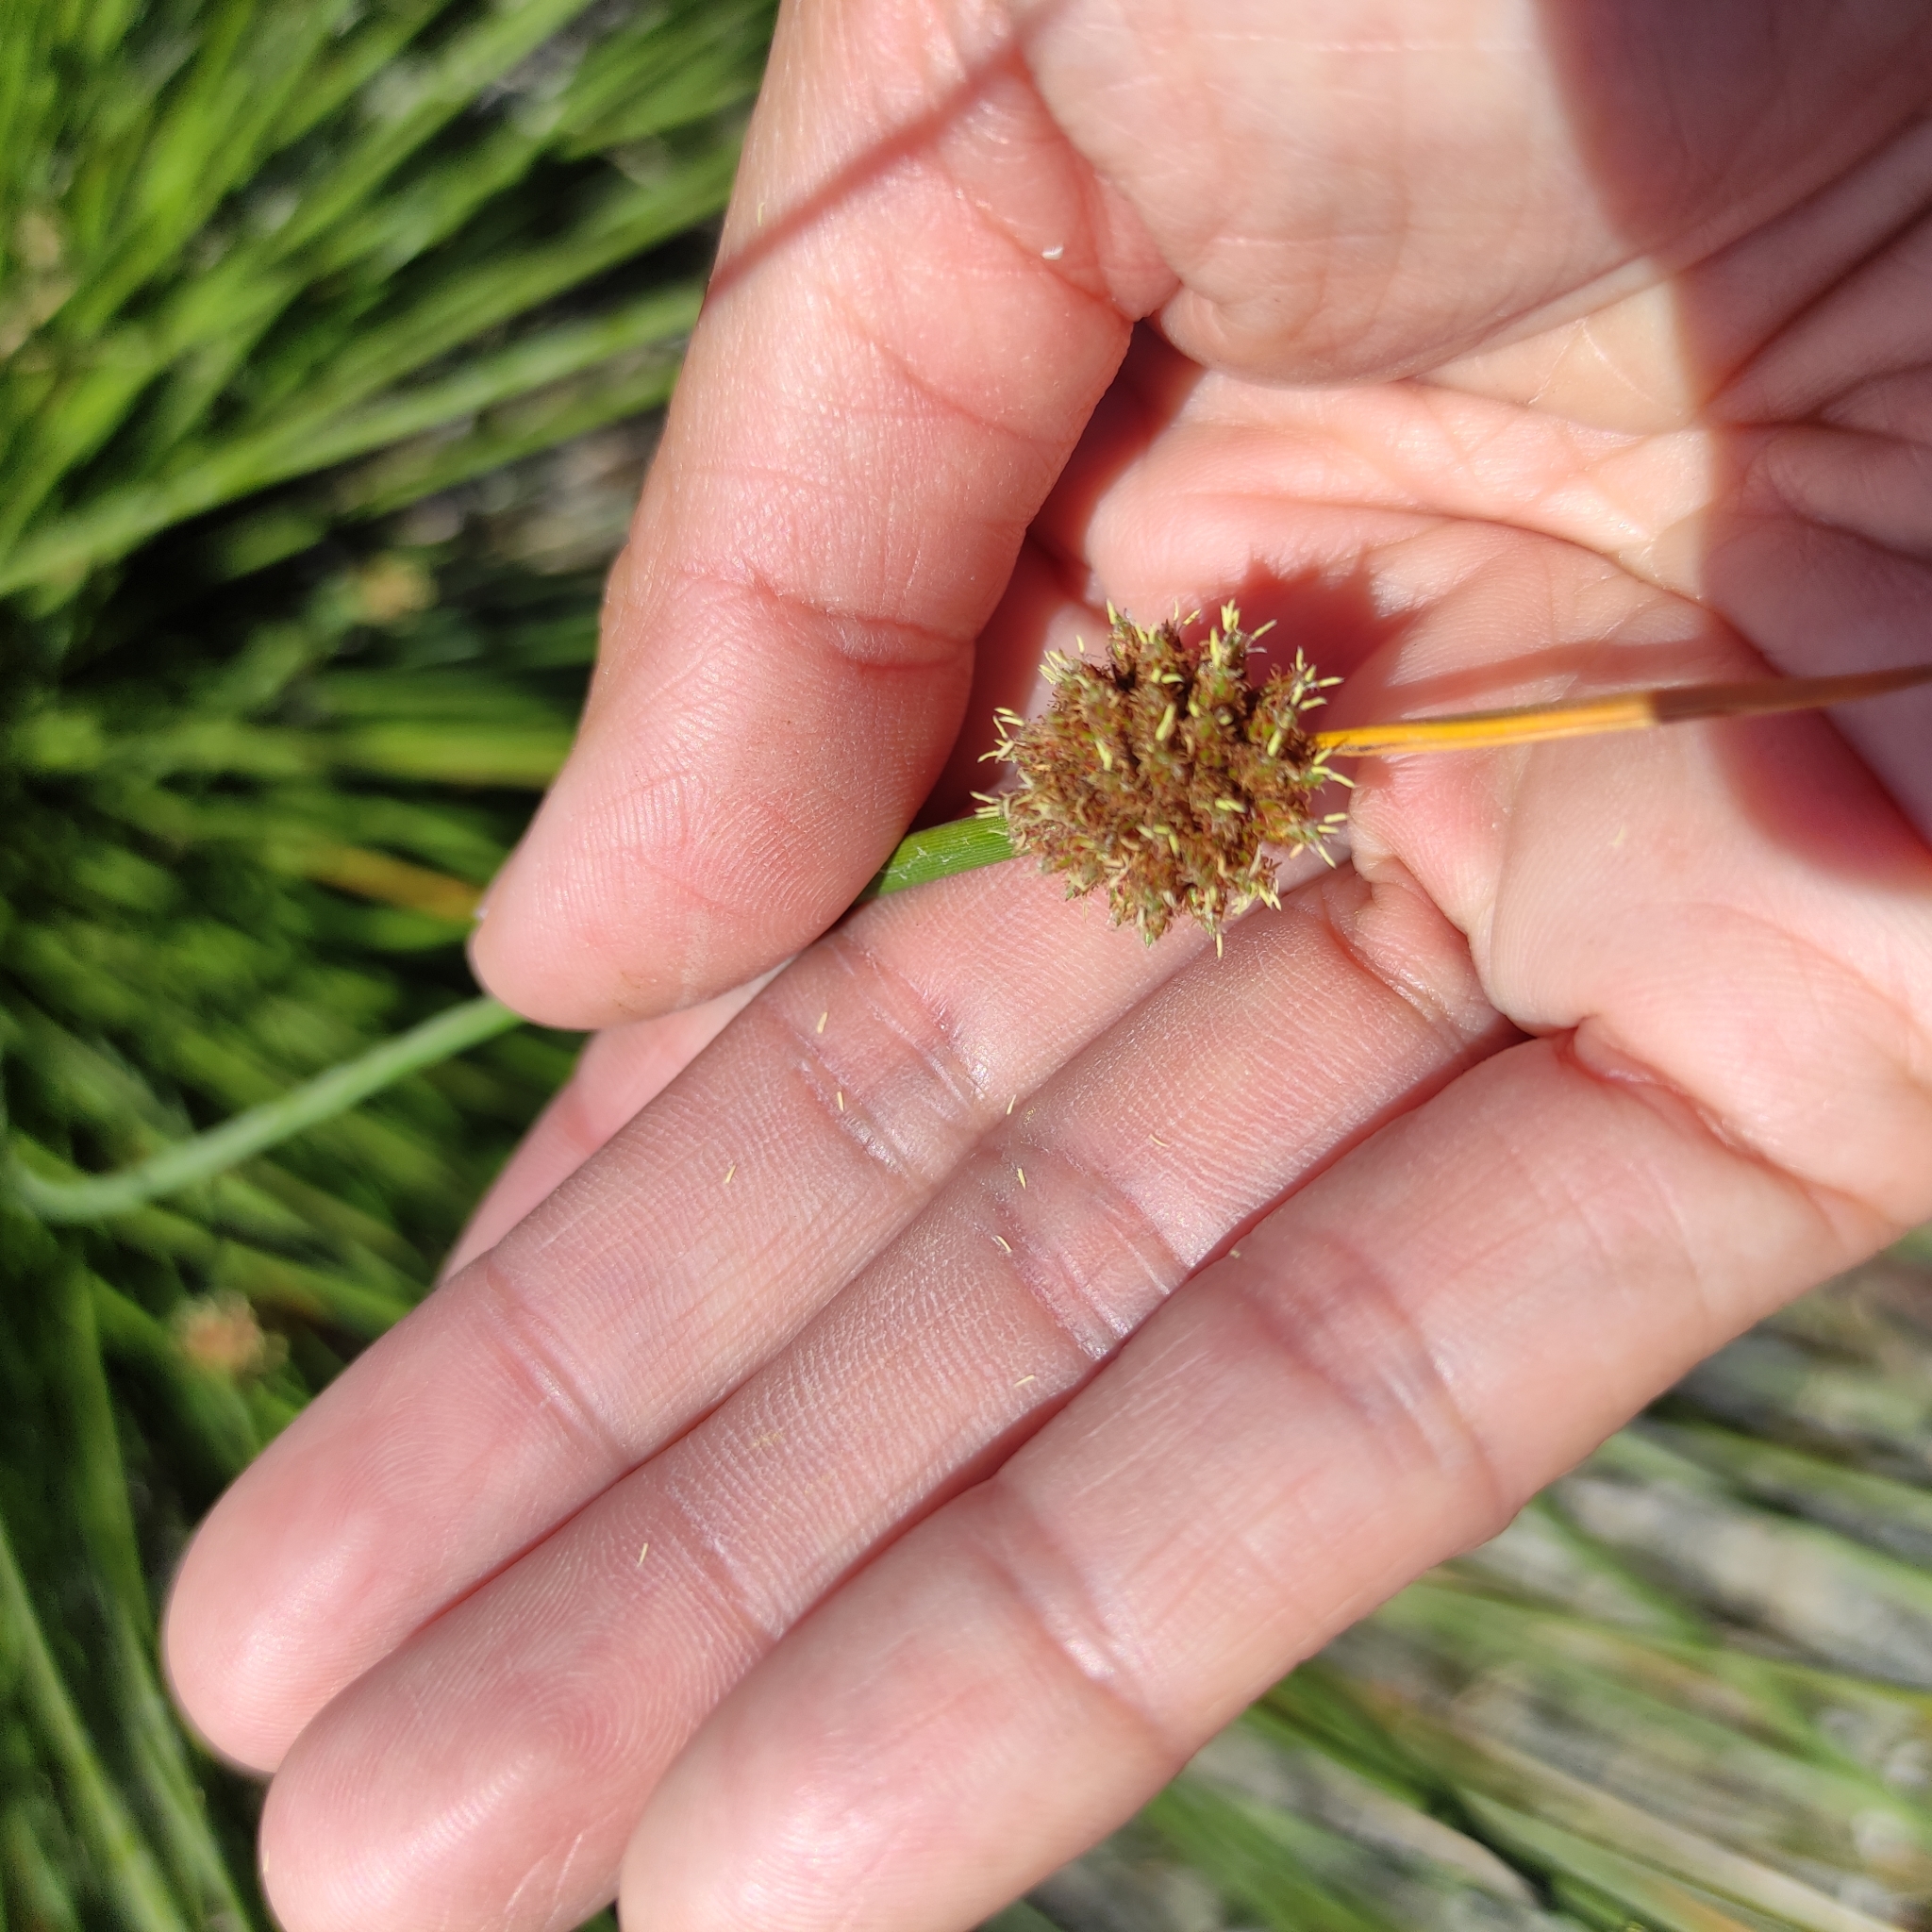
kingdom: Plantae
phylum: Tracheophyta
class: Liliopsida
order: Poales
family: Cyperaceae
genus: Ficinia
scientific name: Ficinia nodosa
